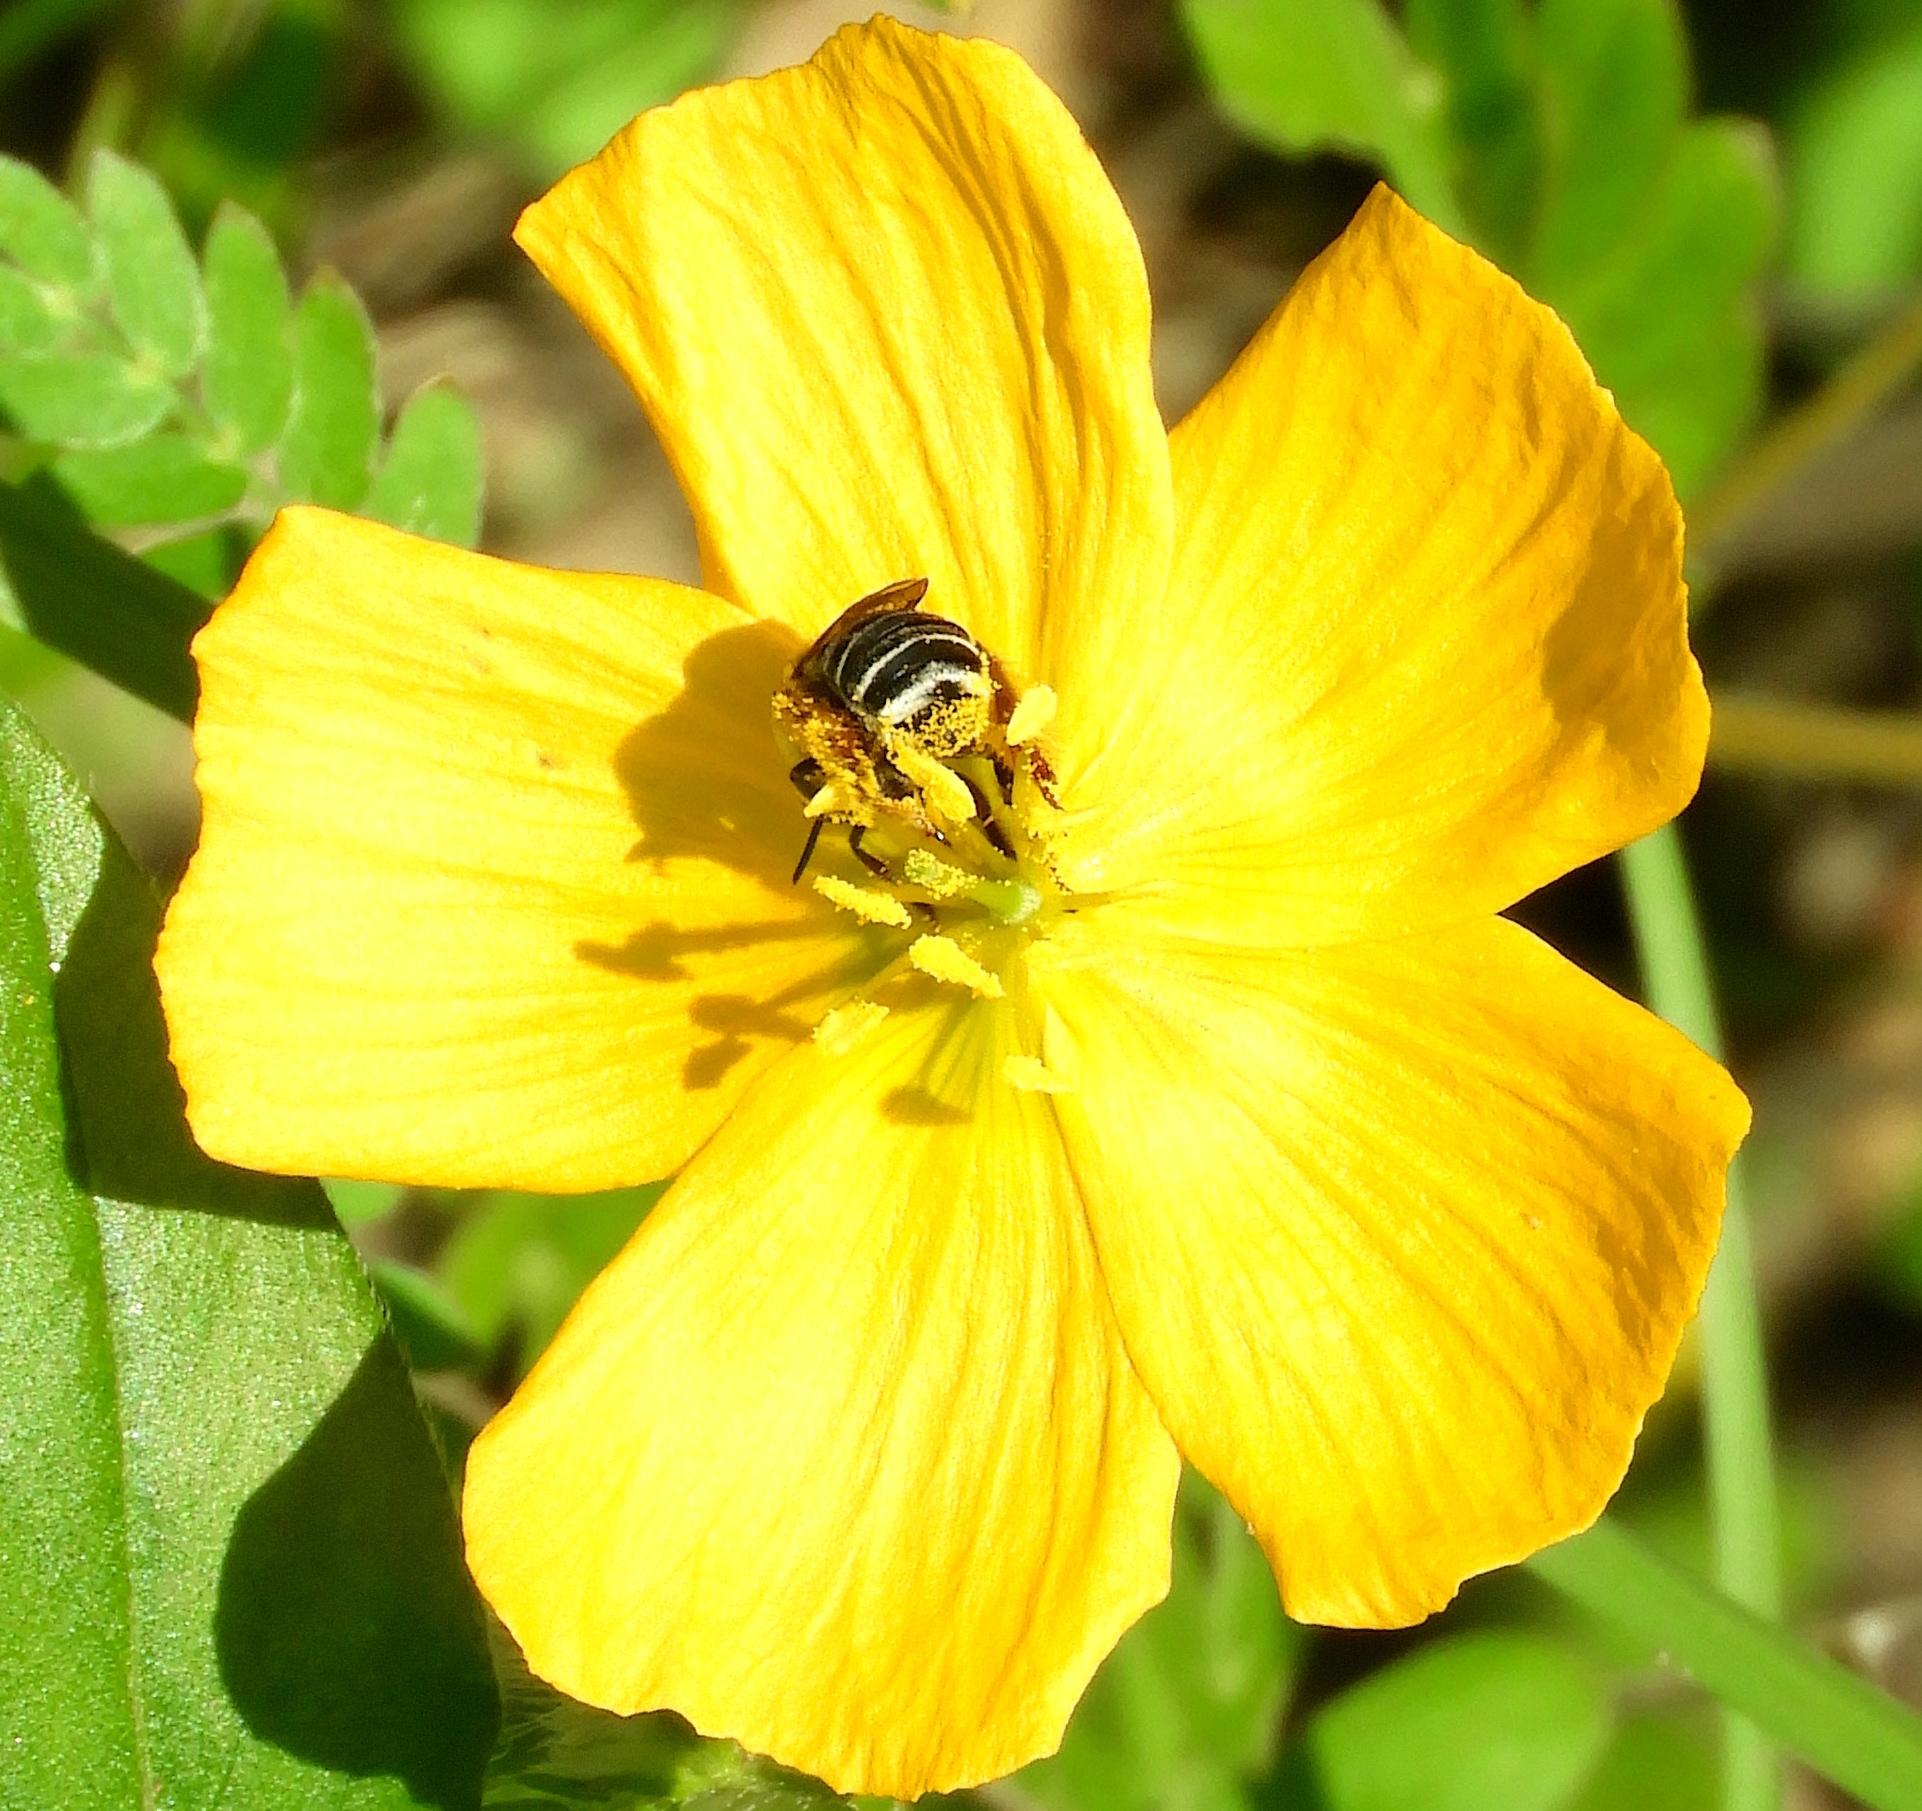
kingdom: Plantae
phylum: Tracheophyta
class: Magnoliopsida
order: Zygophyllales
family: Zygophyllaceae
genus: Kallstroemia
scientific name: Kallstroemia grandiflora
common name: Arizona-poppy
